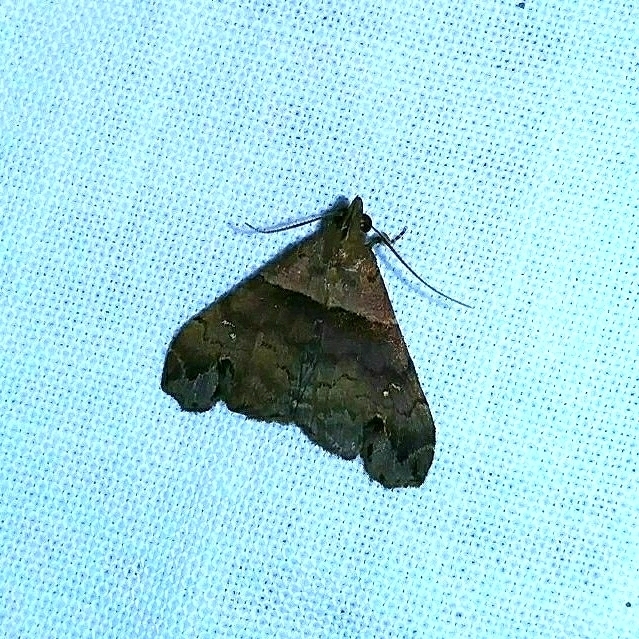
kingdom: Animalia
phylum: Arthropoda
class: Insecta
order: Lepidoptera
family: Erebidae
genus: Lascoria
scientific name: Lascoria ambigualis
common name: Ambiguous moth
